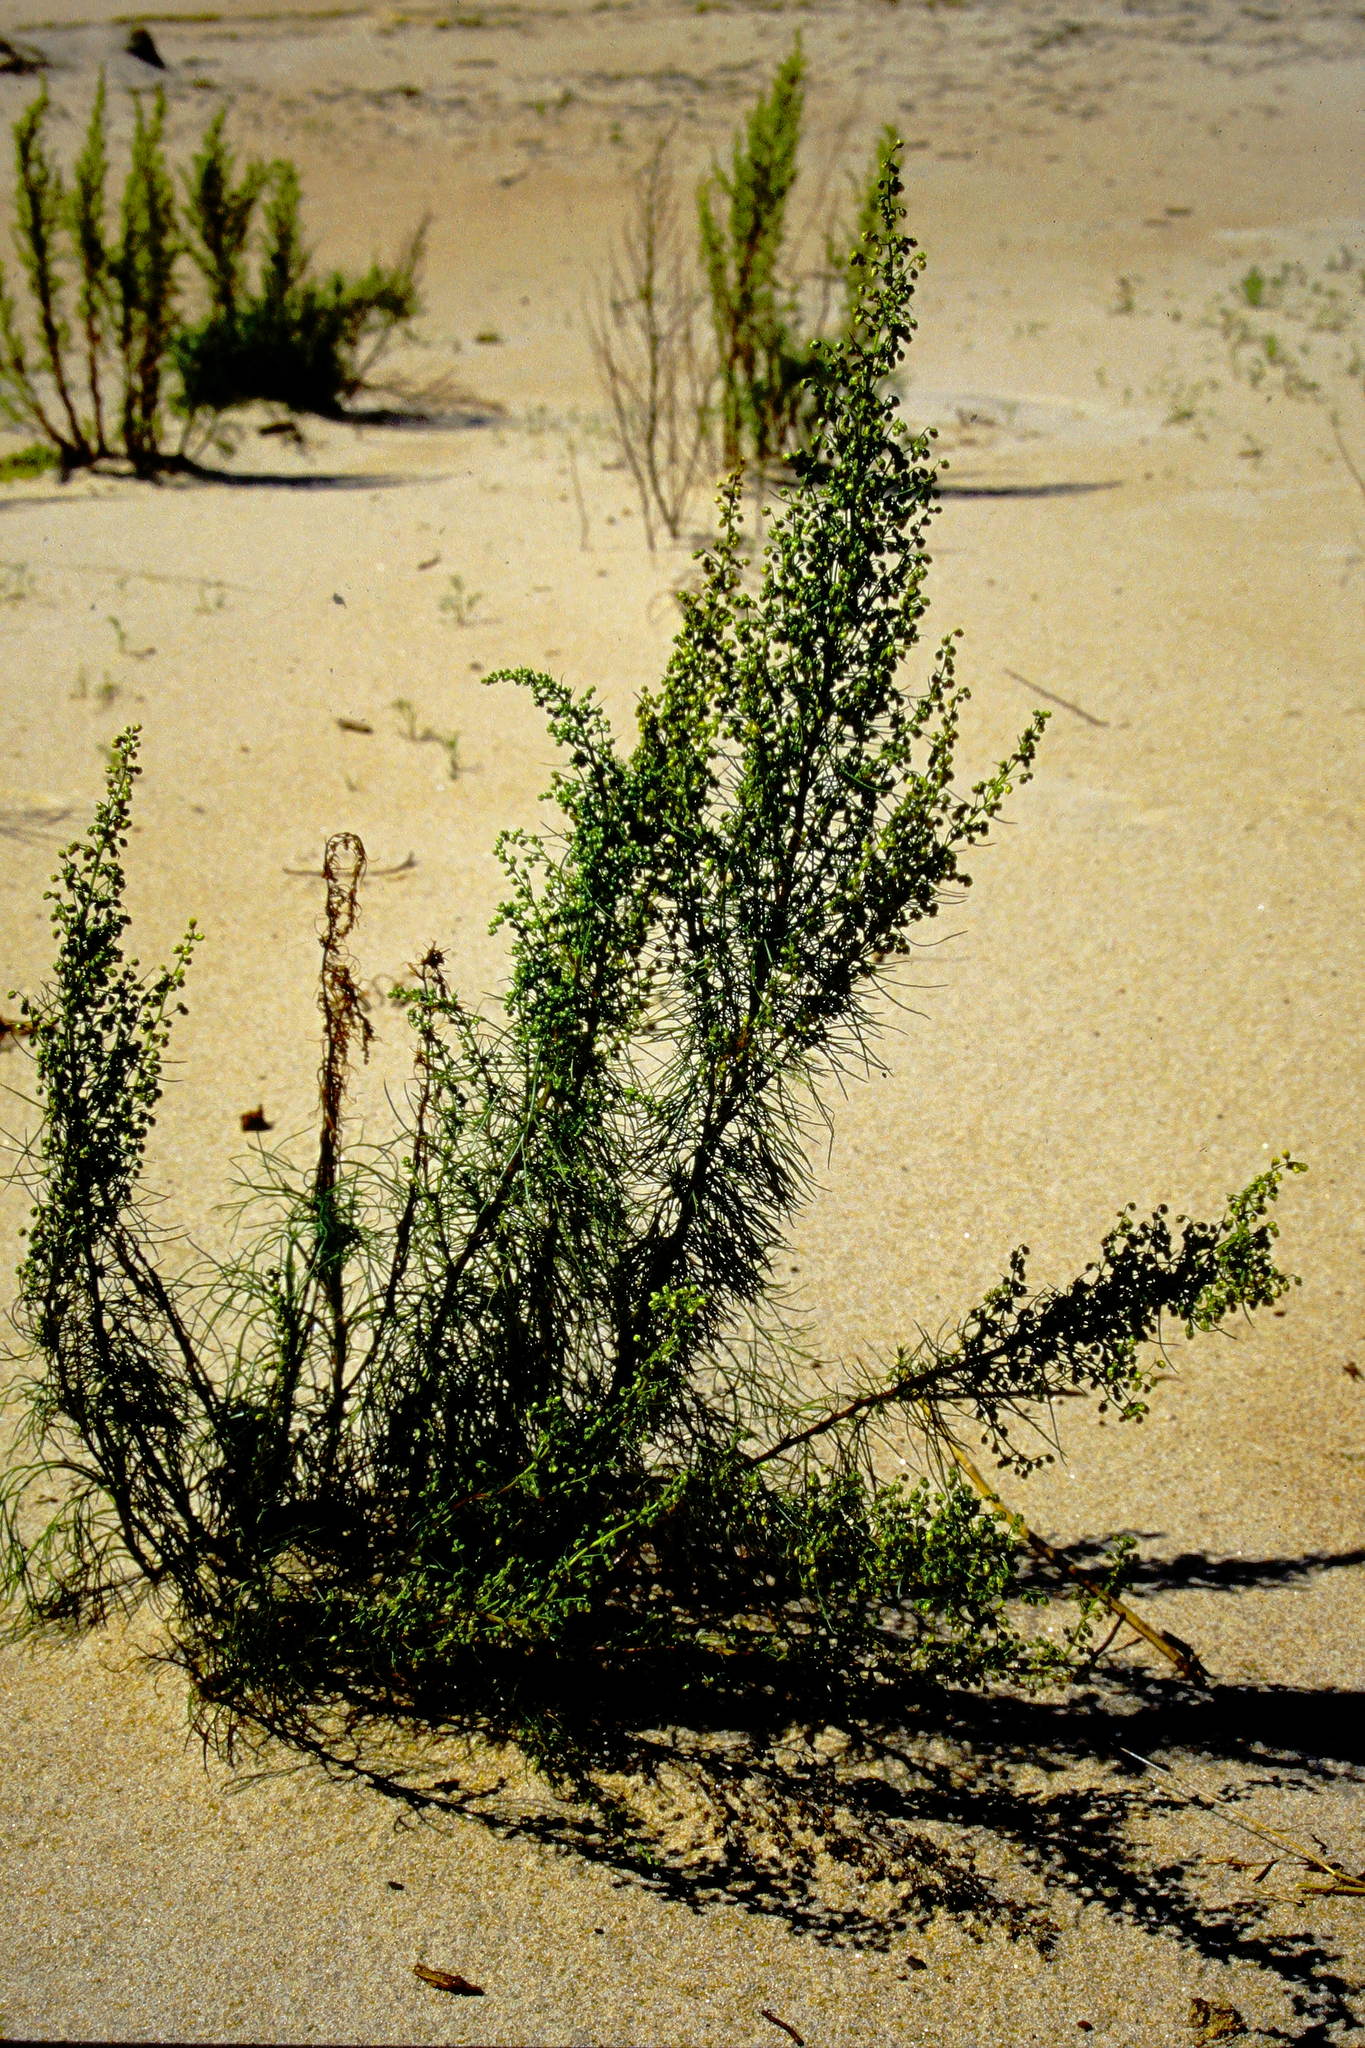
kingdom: Plantae
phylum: Tracheophyta
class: Magnoliopsida
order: Asterales
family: Asteraceae
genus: Artemisia
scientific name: Artemisia campestris
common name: Field wormwood
